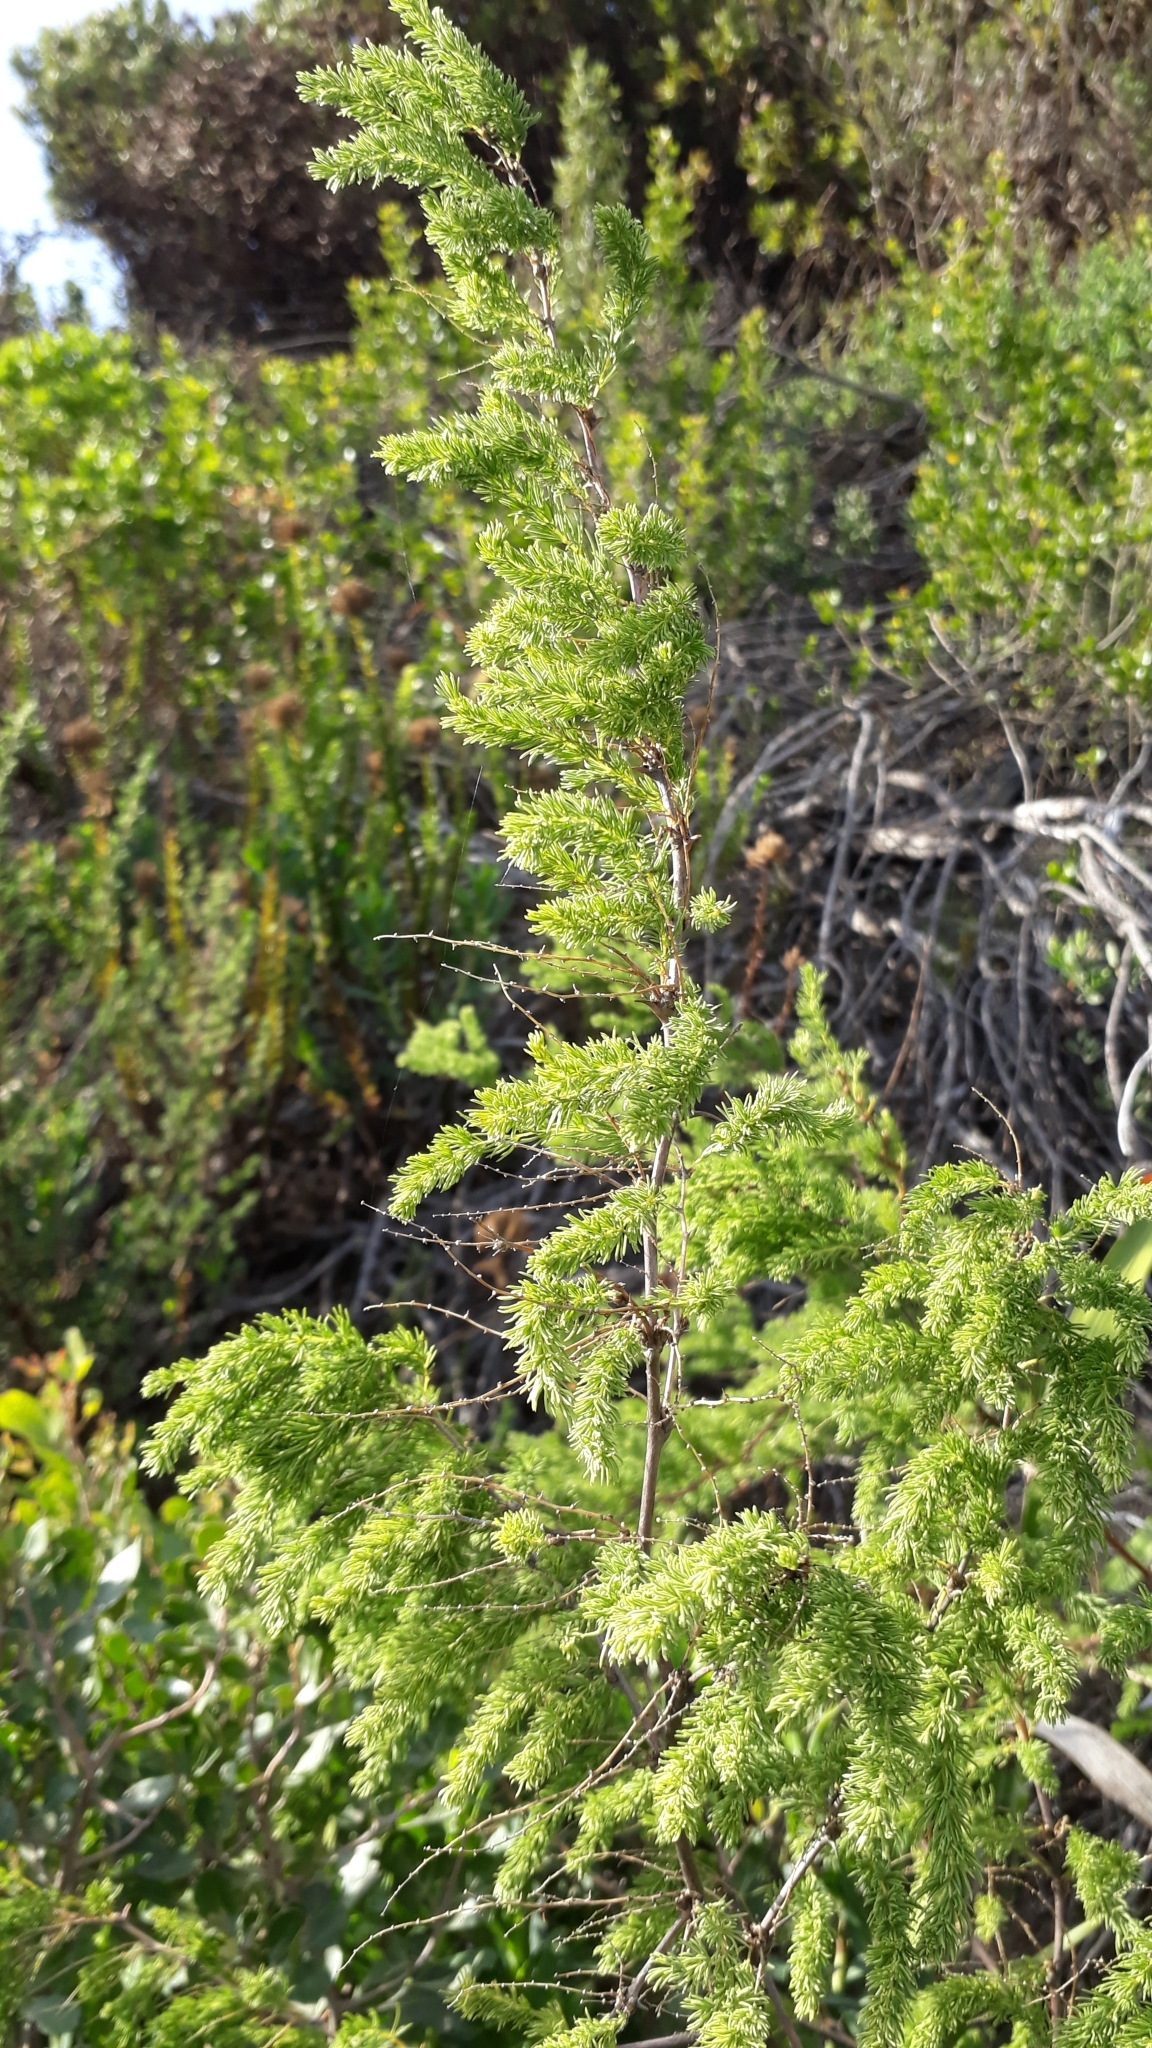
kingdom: Plantae
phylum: Tracheophyta
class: Liliopsida
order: Asparagales
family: Asparagaceae
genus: Asparagus
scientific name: Asparagus rubicundus
